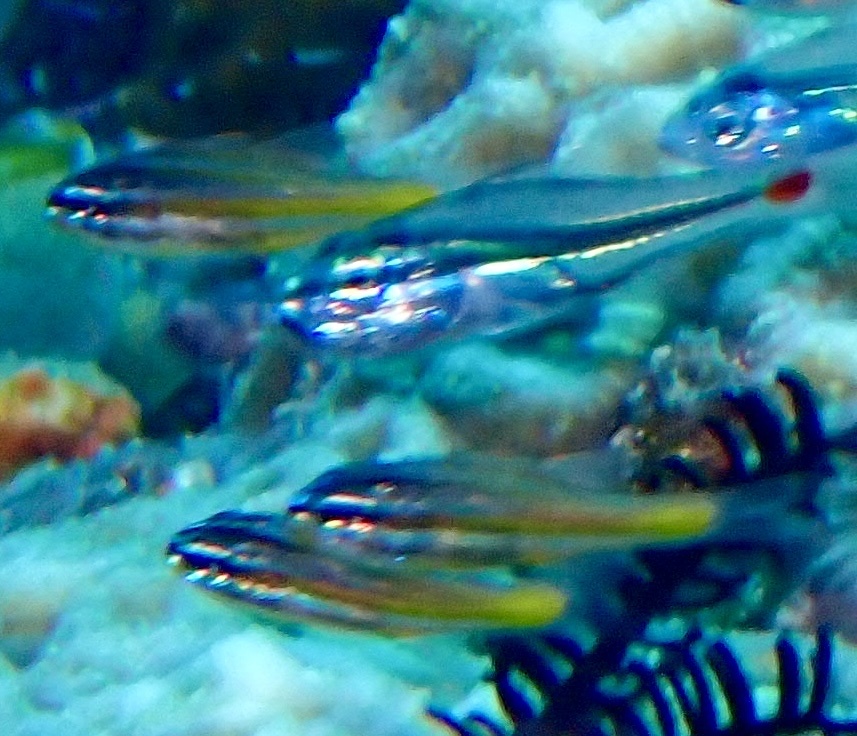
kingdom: Animalia
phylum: Chordata
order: Perciformes
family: Apogonidae
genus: Ostorhinchus
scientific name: Ostorhinchus wassinki
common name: Kupang cardinalfish
